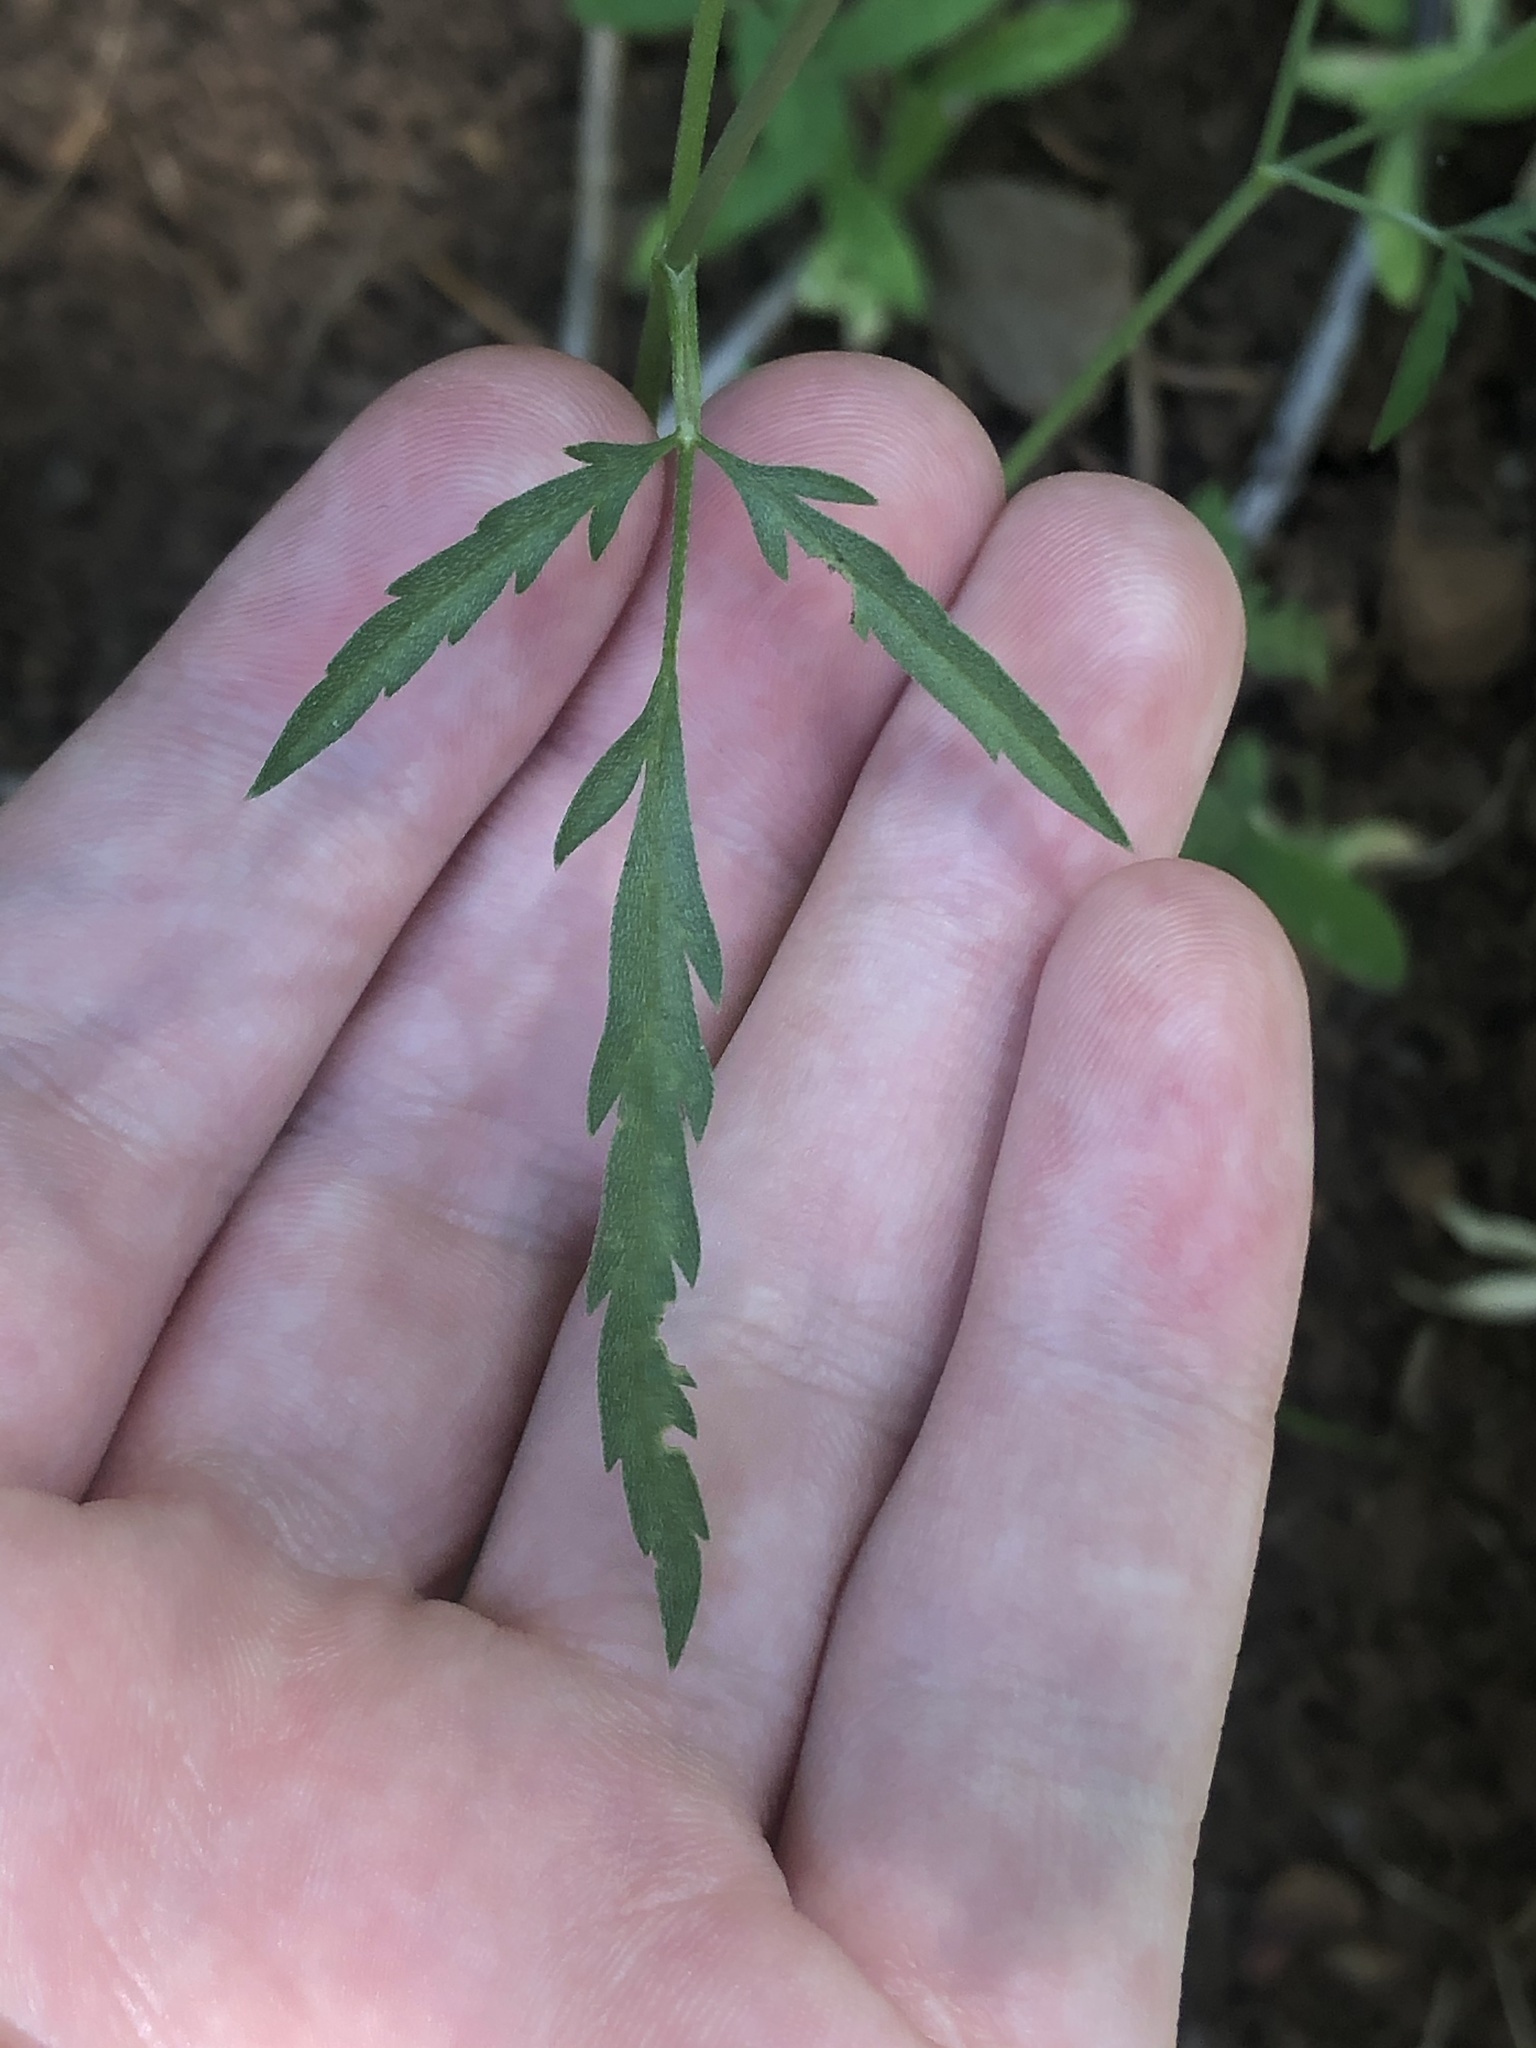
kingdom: Plantae
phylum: Tracheophyta
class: Magnoliopsida
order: Apiales
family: Apiaceae
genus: Torilis
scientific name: Torilis arvensis
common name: Spreading hedge-parsley
